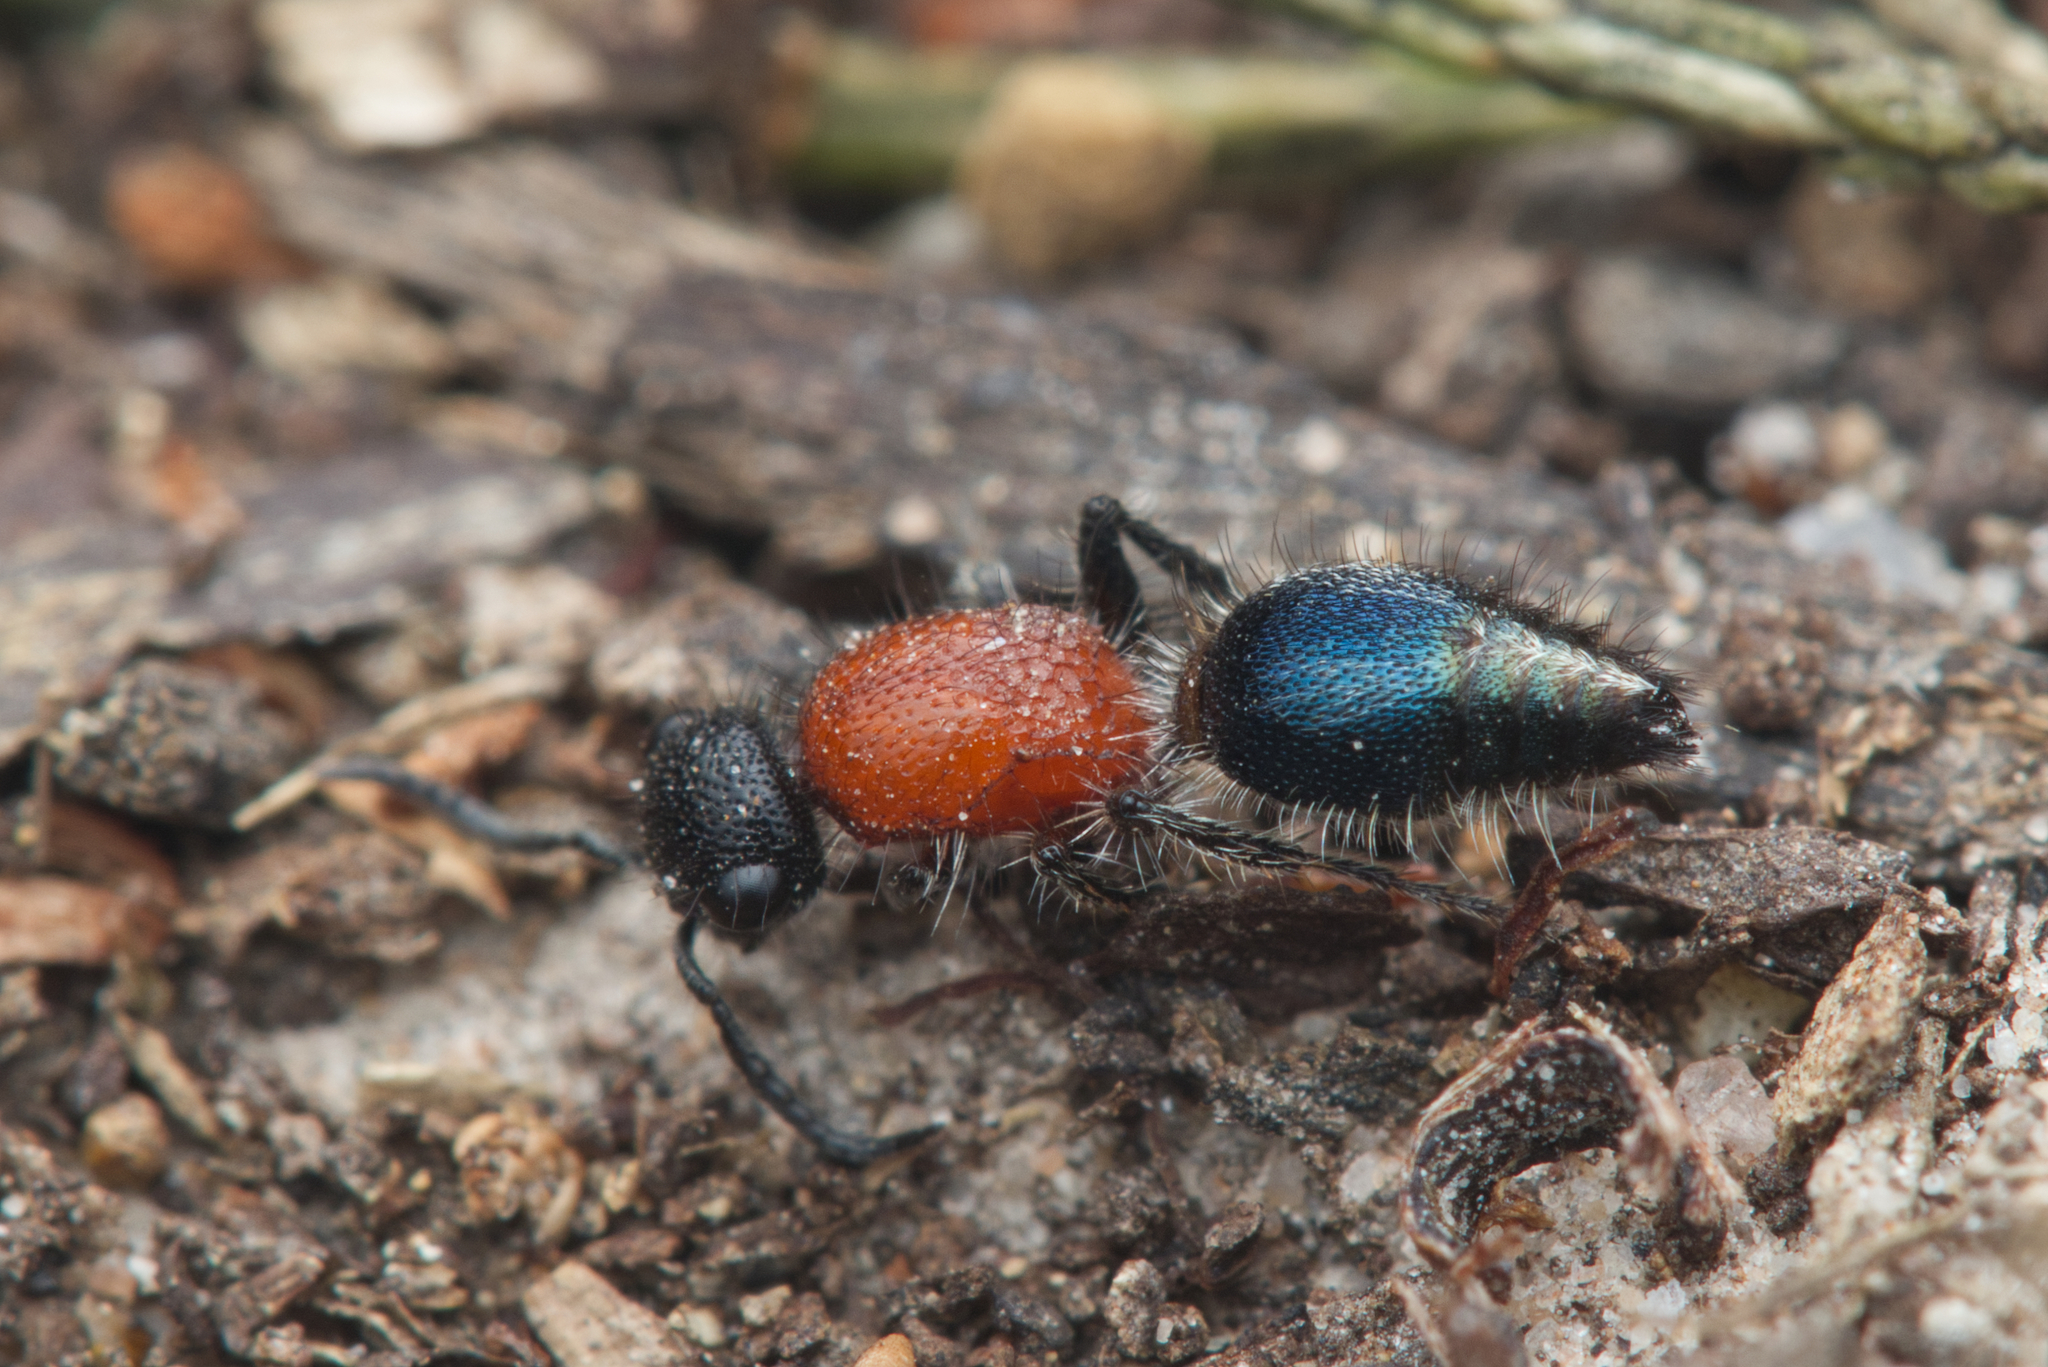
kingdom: Animalia
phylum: Arthropoda
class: Insecta
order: Hymenoptera
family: Mutillidae
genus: Ephutomorpha
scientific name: Ephutomorpha
